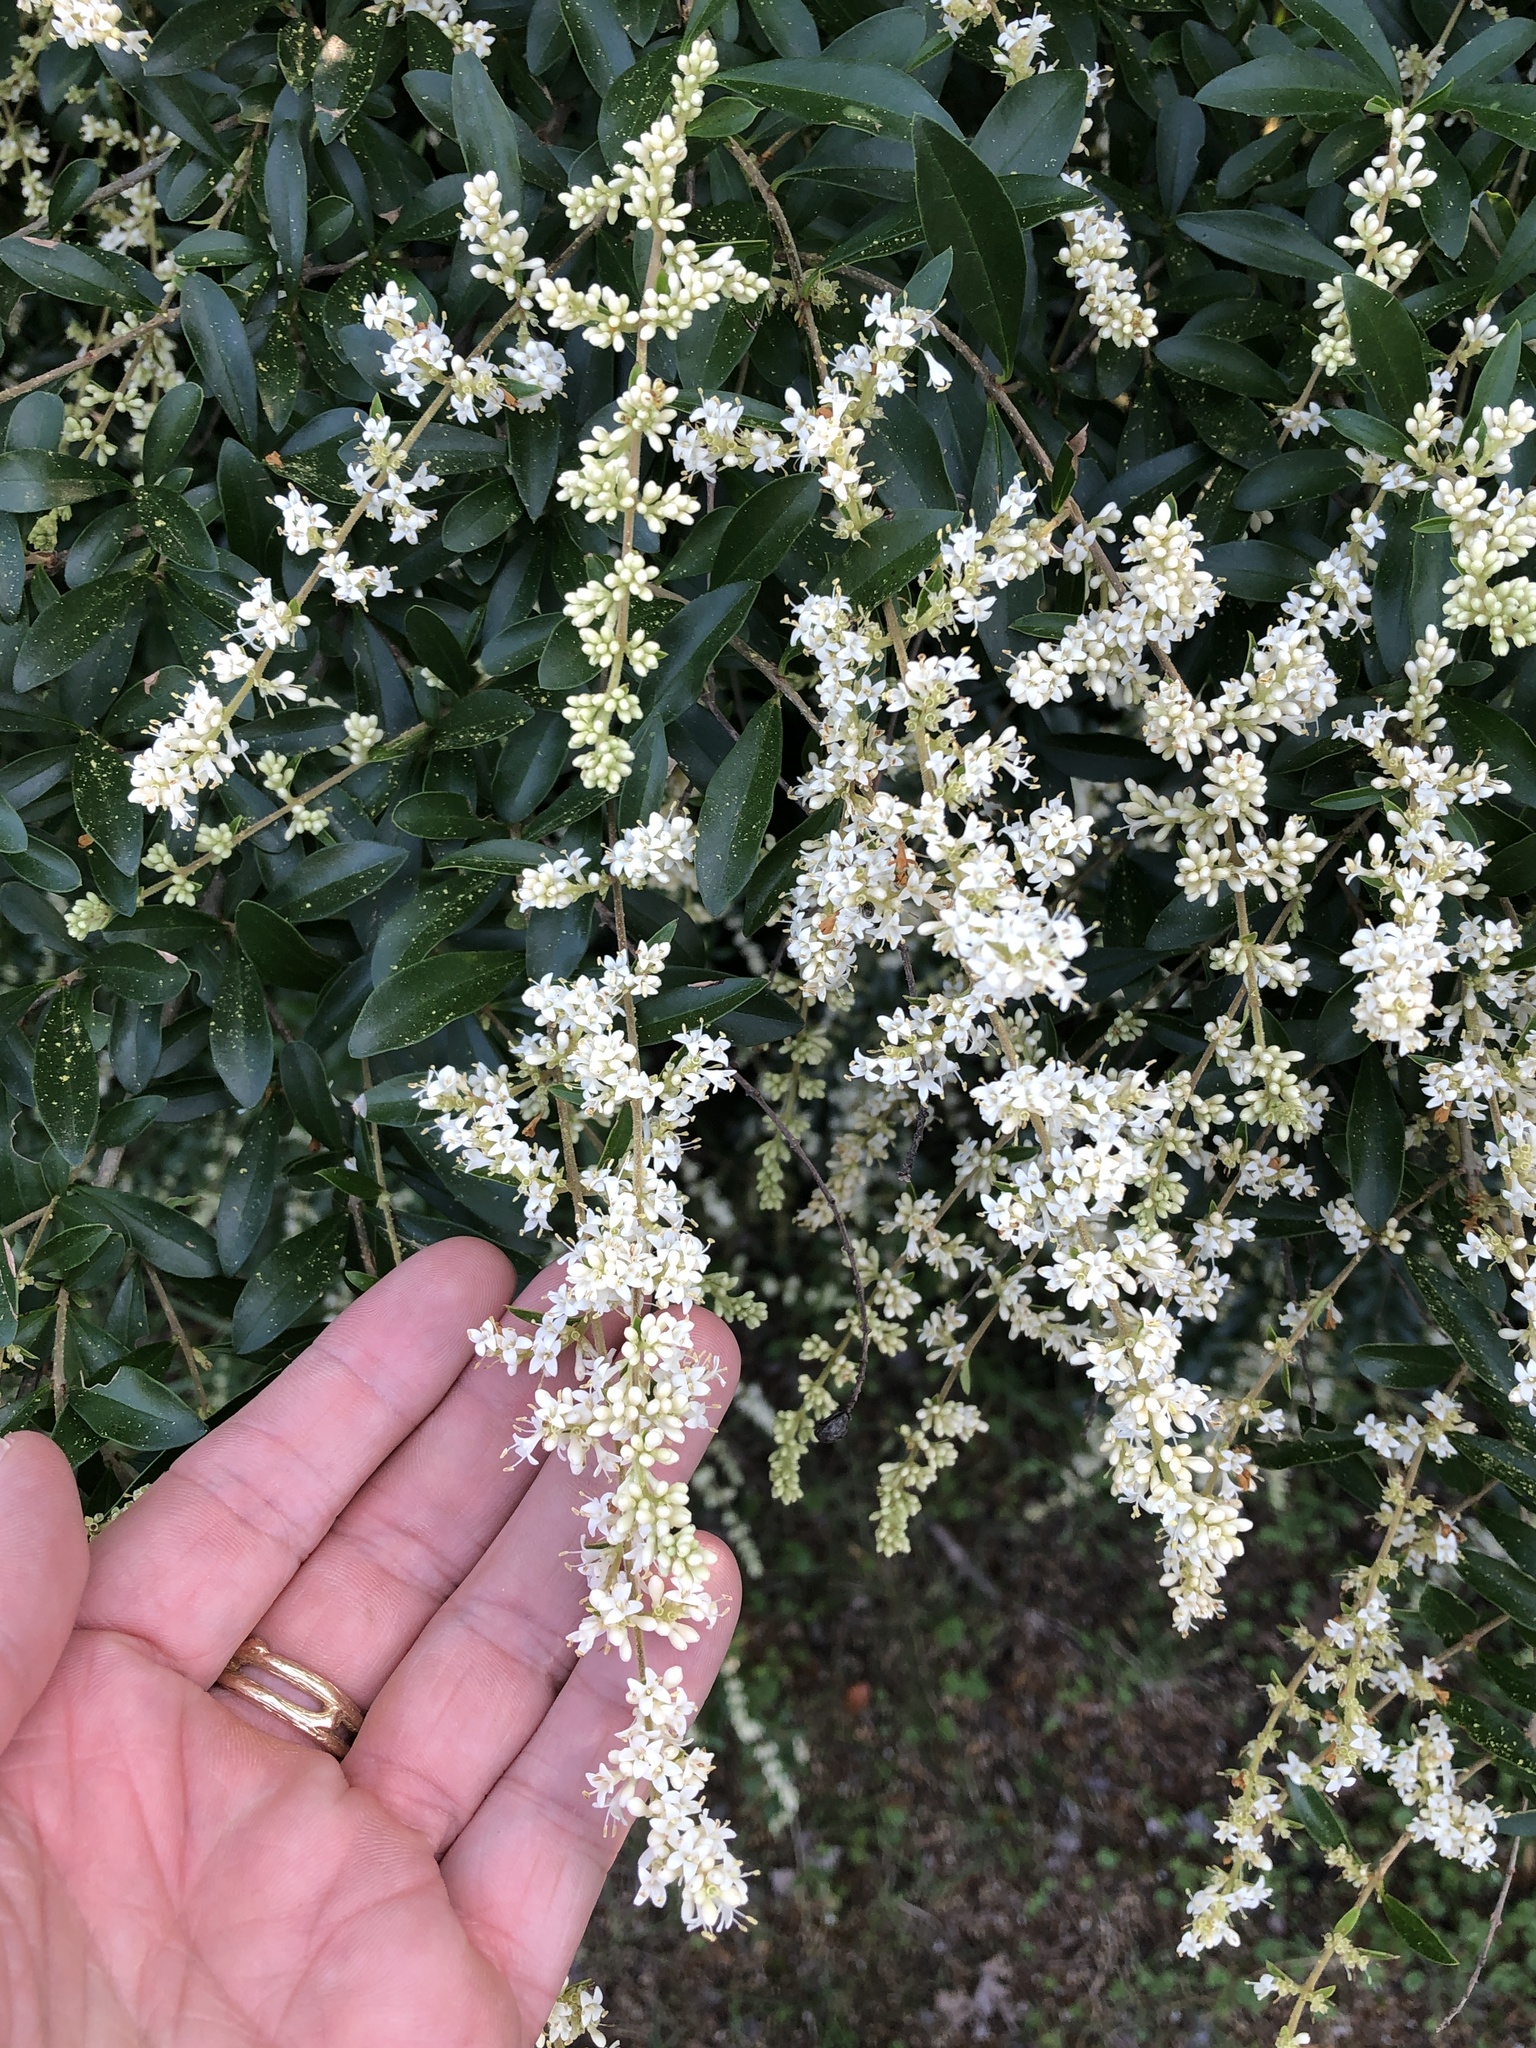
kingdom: Plantae
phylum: Tracheophyta
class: Magnoliopsida
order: Lamiales
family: Oleaceae
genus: Ligustrum
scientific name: Ligustrum quihoui
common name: Waxyleaf privet
